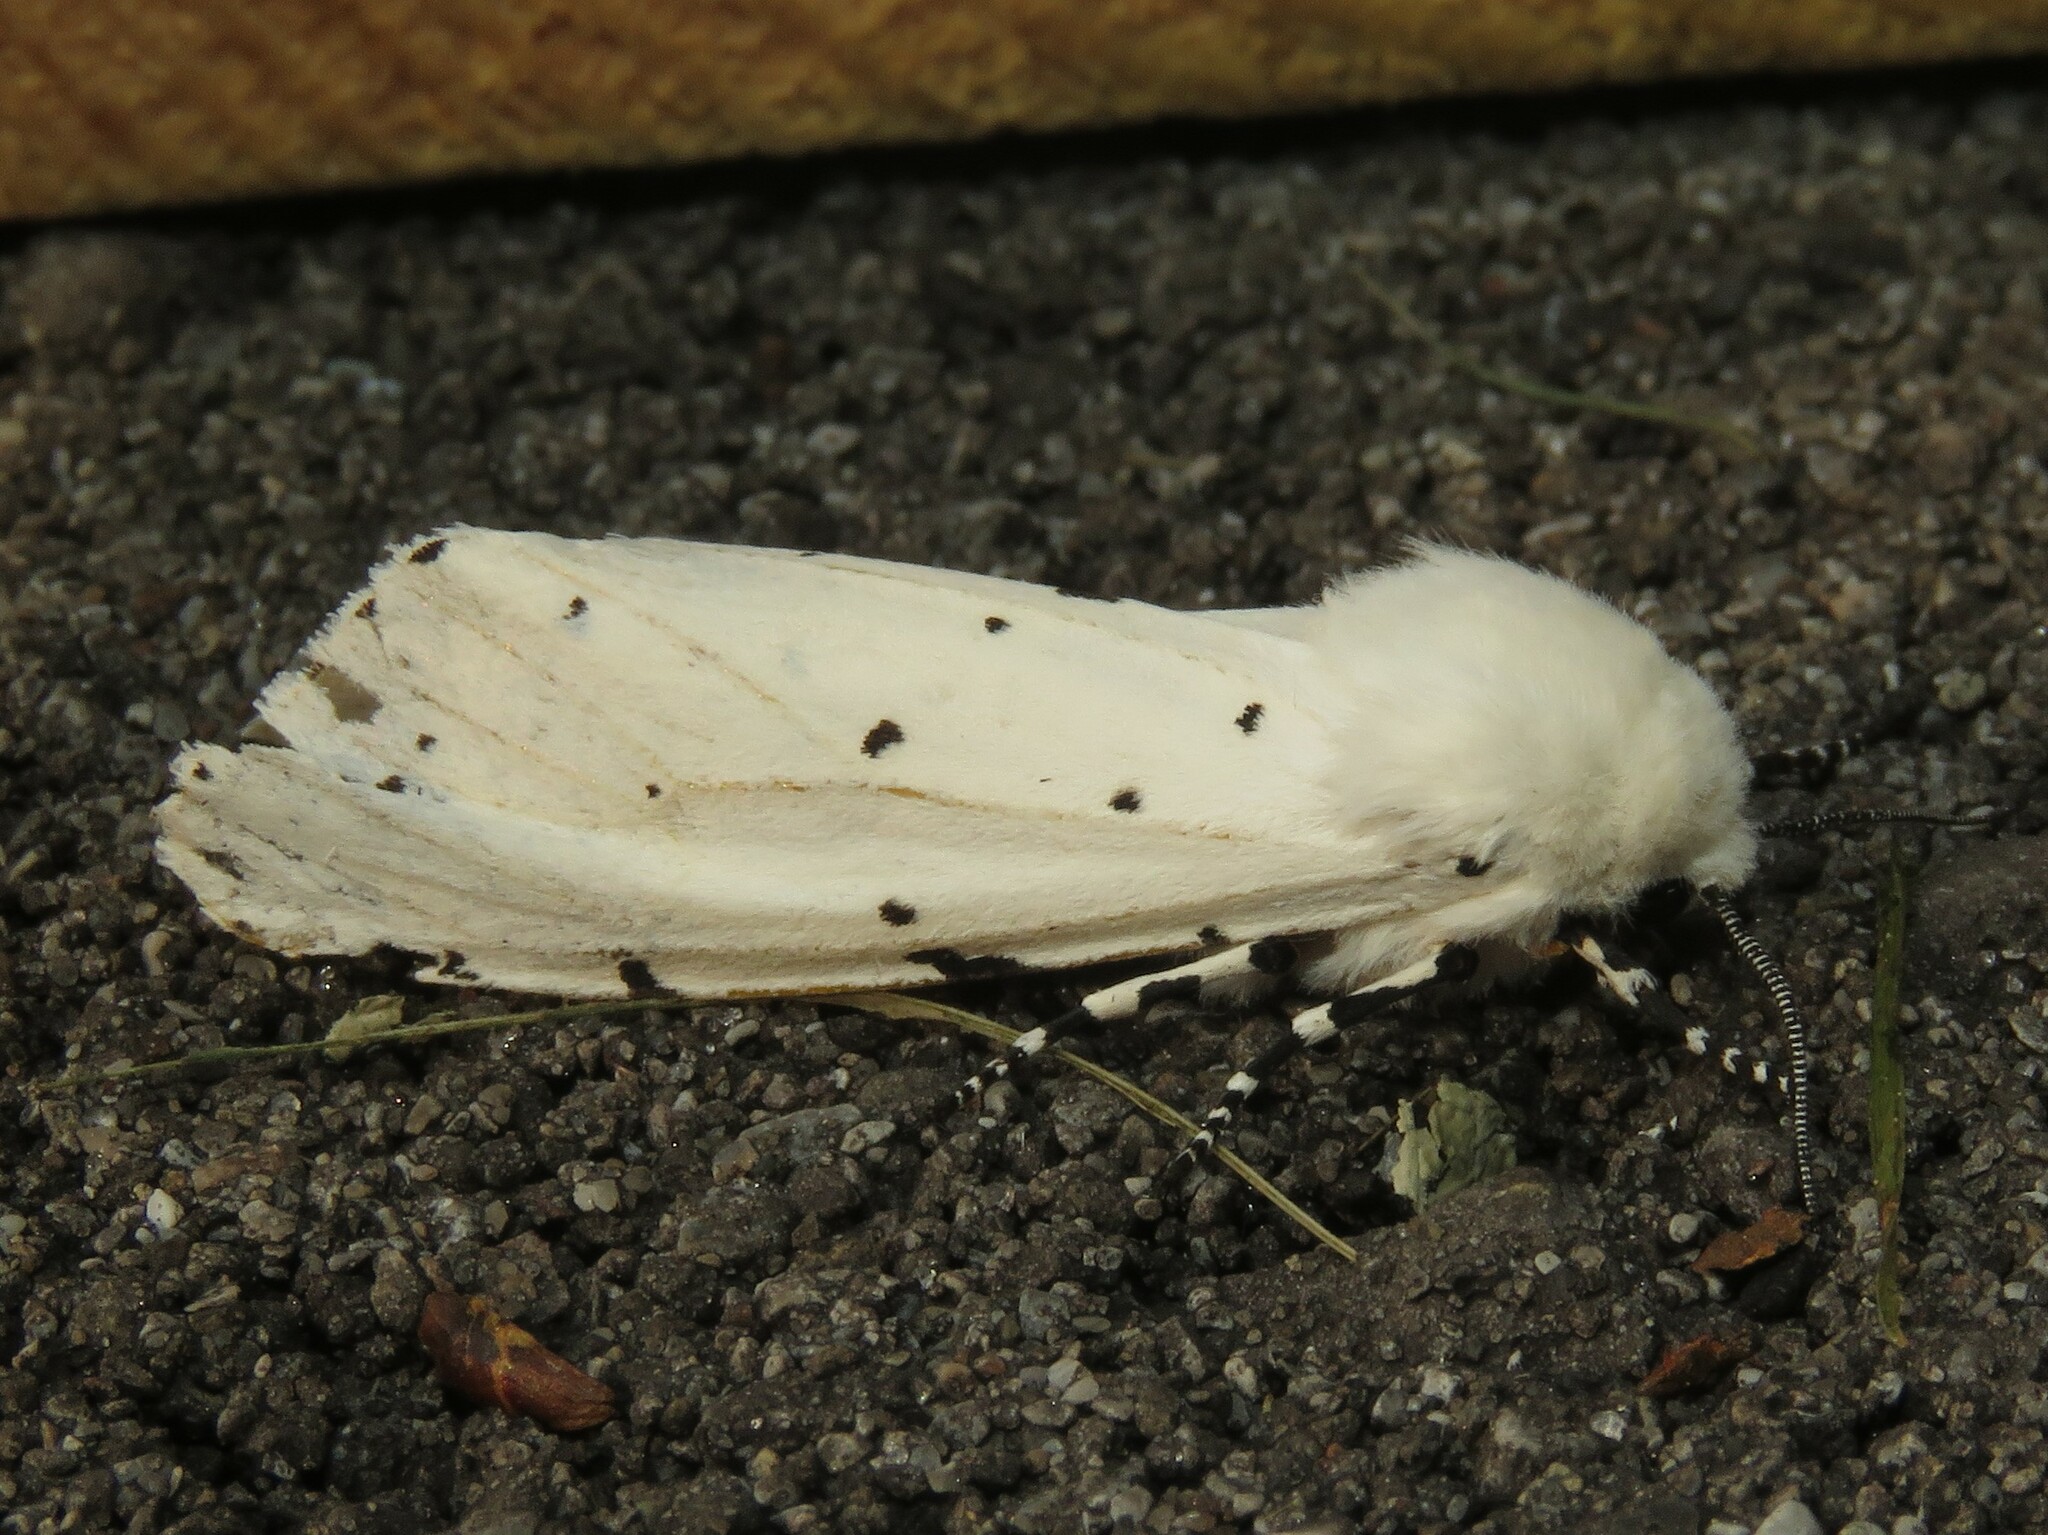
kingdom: Animalia
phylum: Arthropoda
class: Insecta
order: Lepidoptera
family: Erebidae
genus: Estigmene
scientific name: Estigmene acrea
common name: Salt marsh moth
